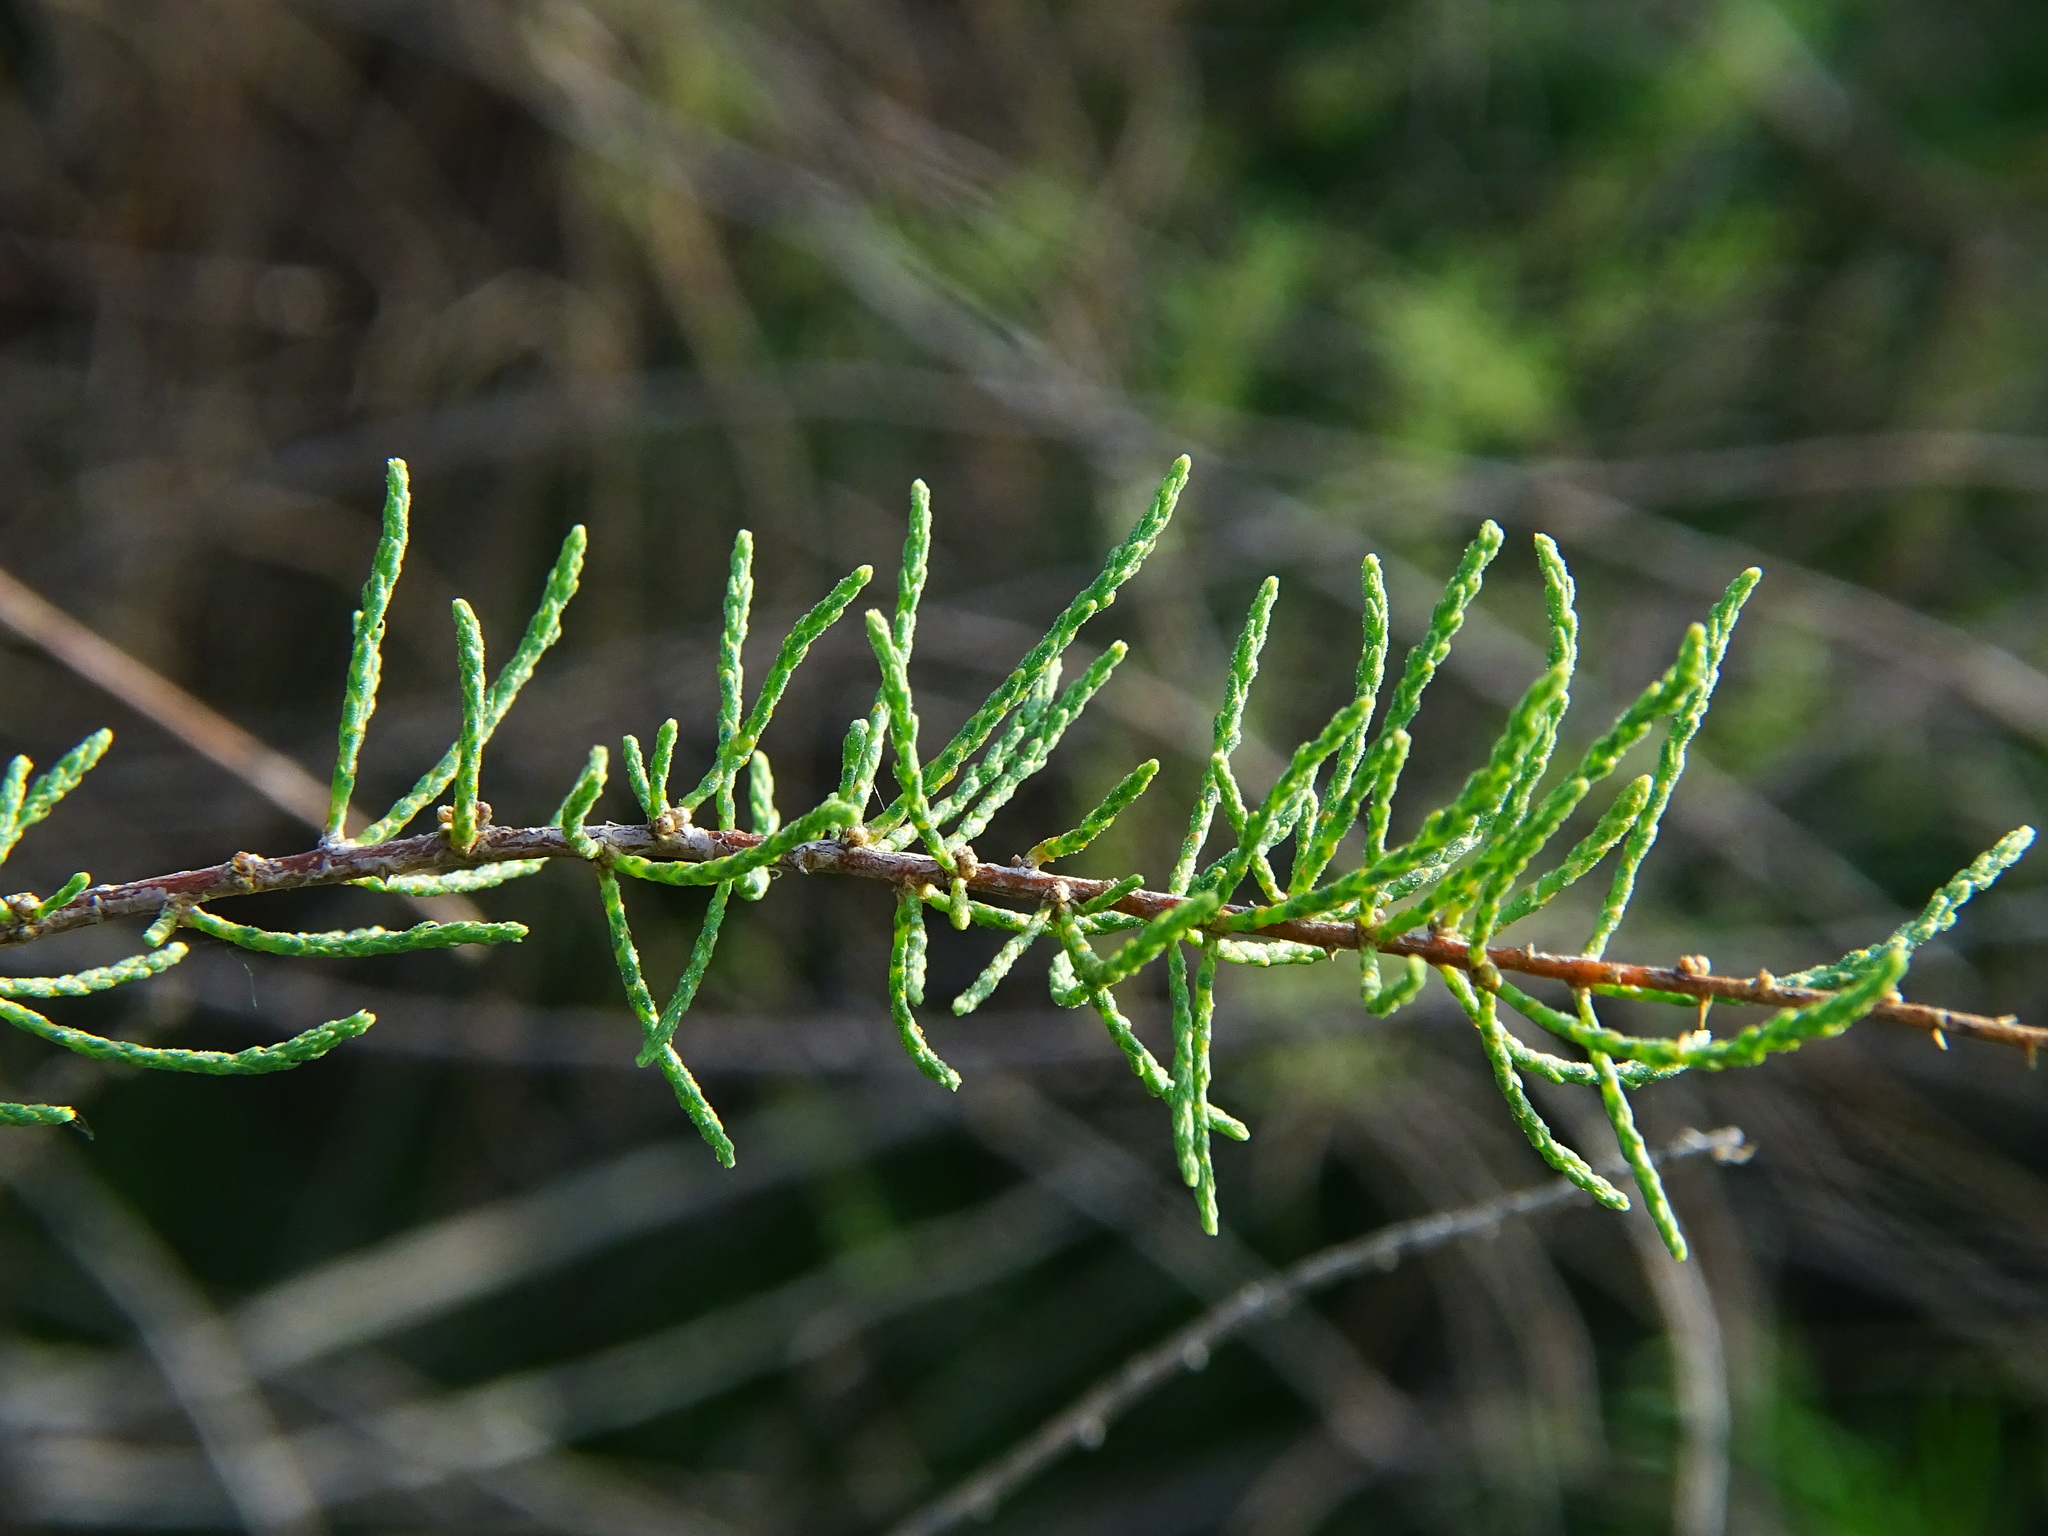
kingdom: Plantae
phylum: Tracheophyta
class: Magnoliopsida
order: Caryophyllales
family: Tamaricaceae
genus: Tamarix
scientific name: Tamarix
